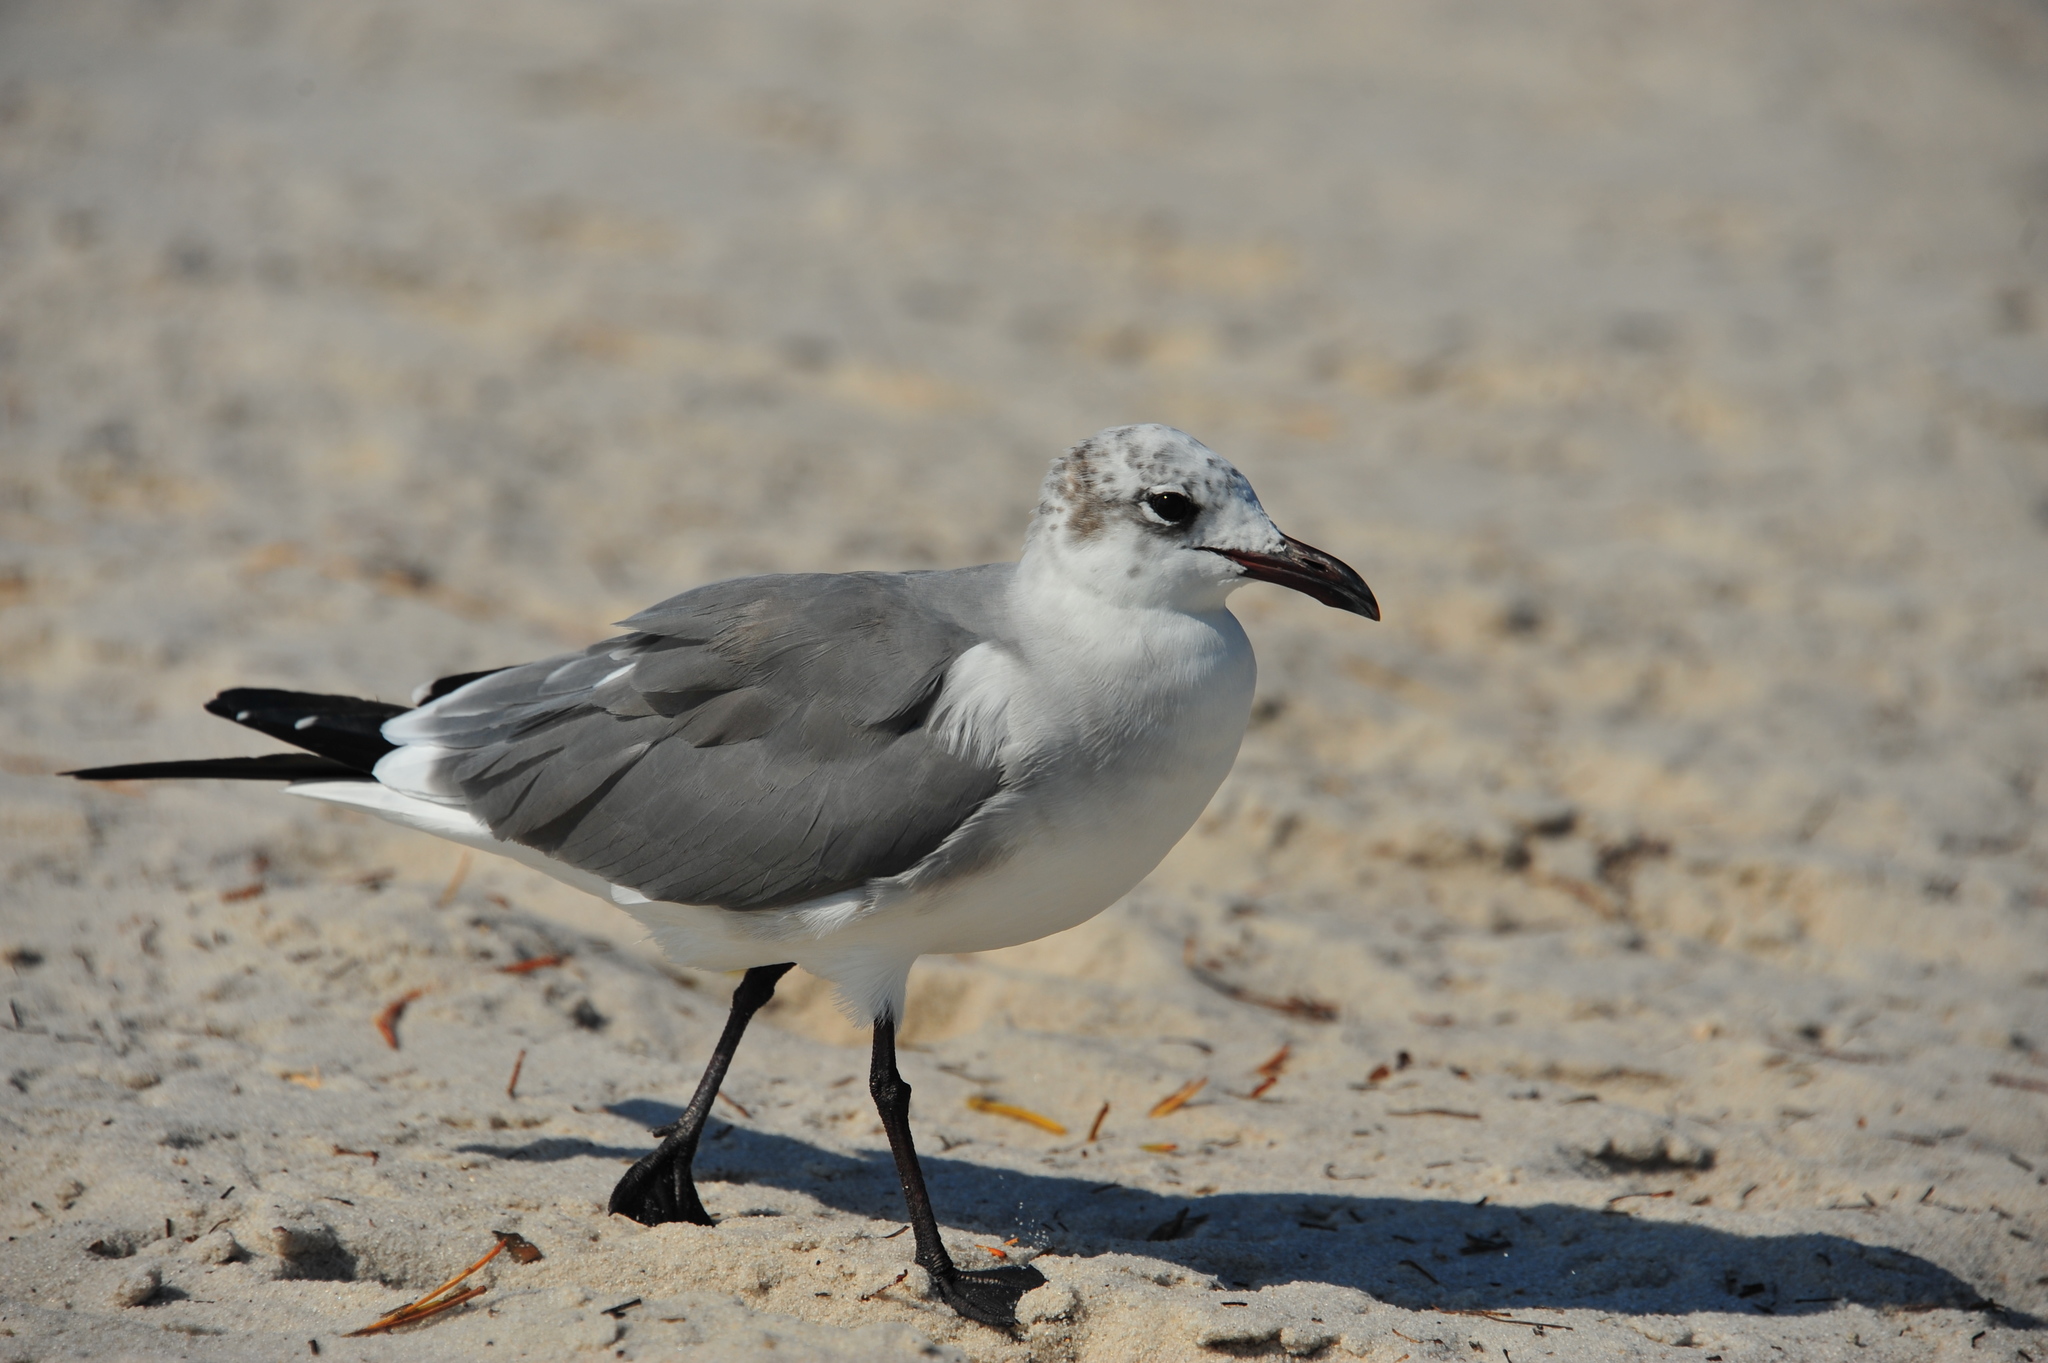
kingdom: Animalia
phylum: Chordata
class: Aves
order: Charadriiformes
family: Laridae
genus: Leucophaeus
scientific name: Leucophaeus atricilla
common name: Laughing gull
